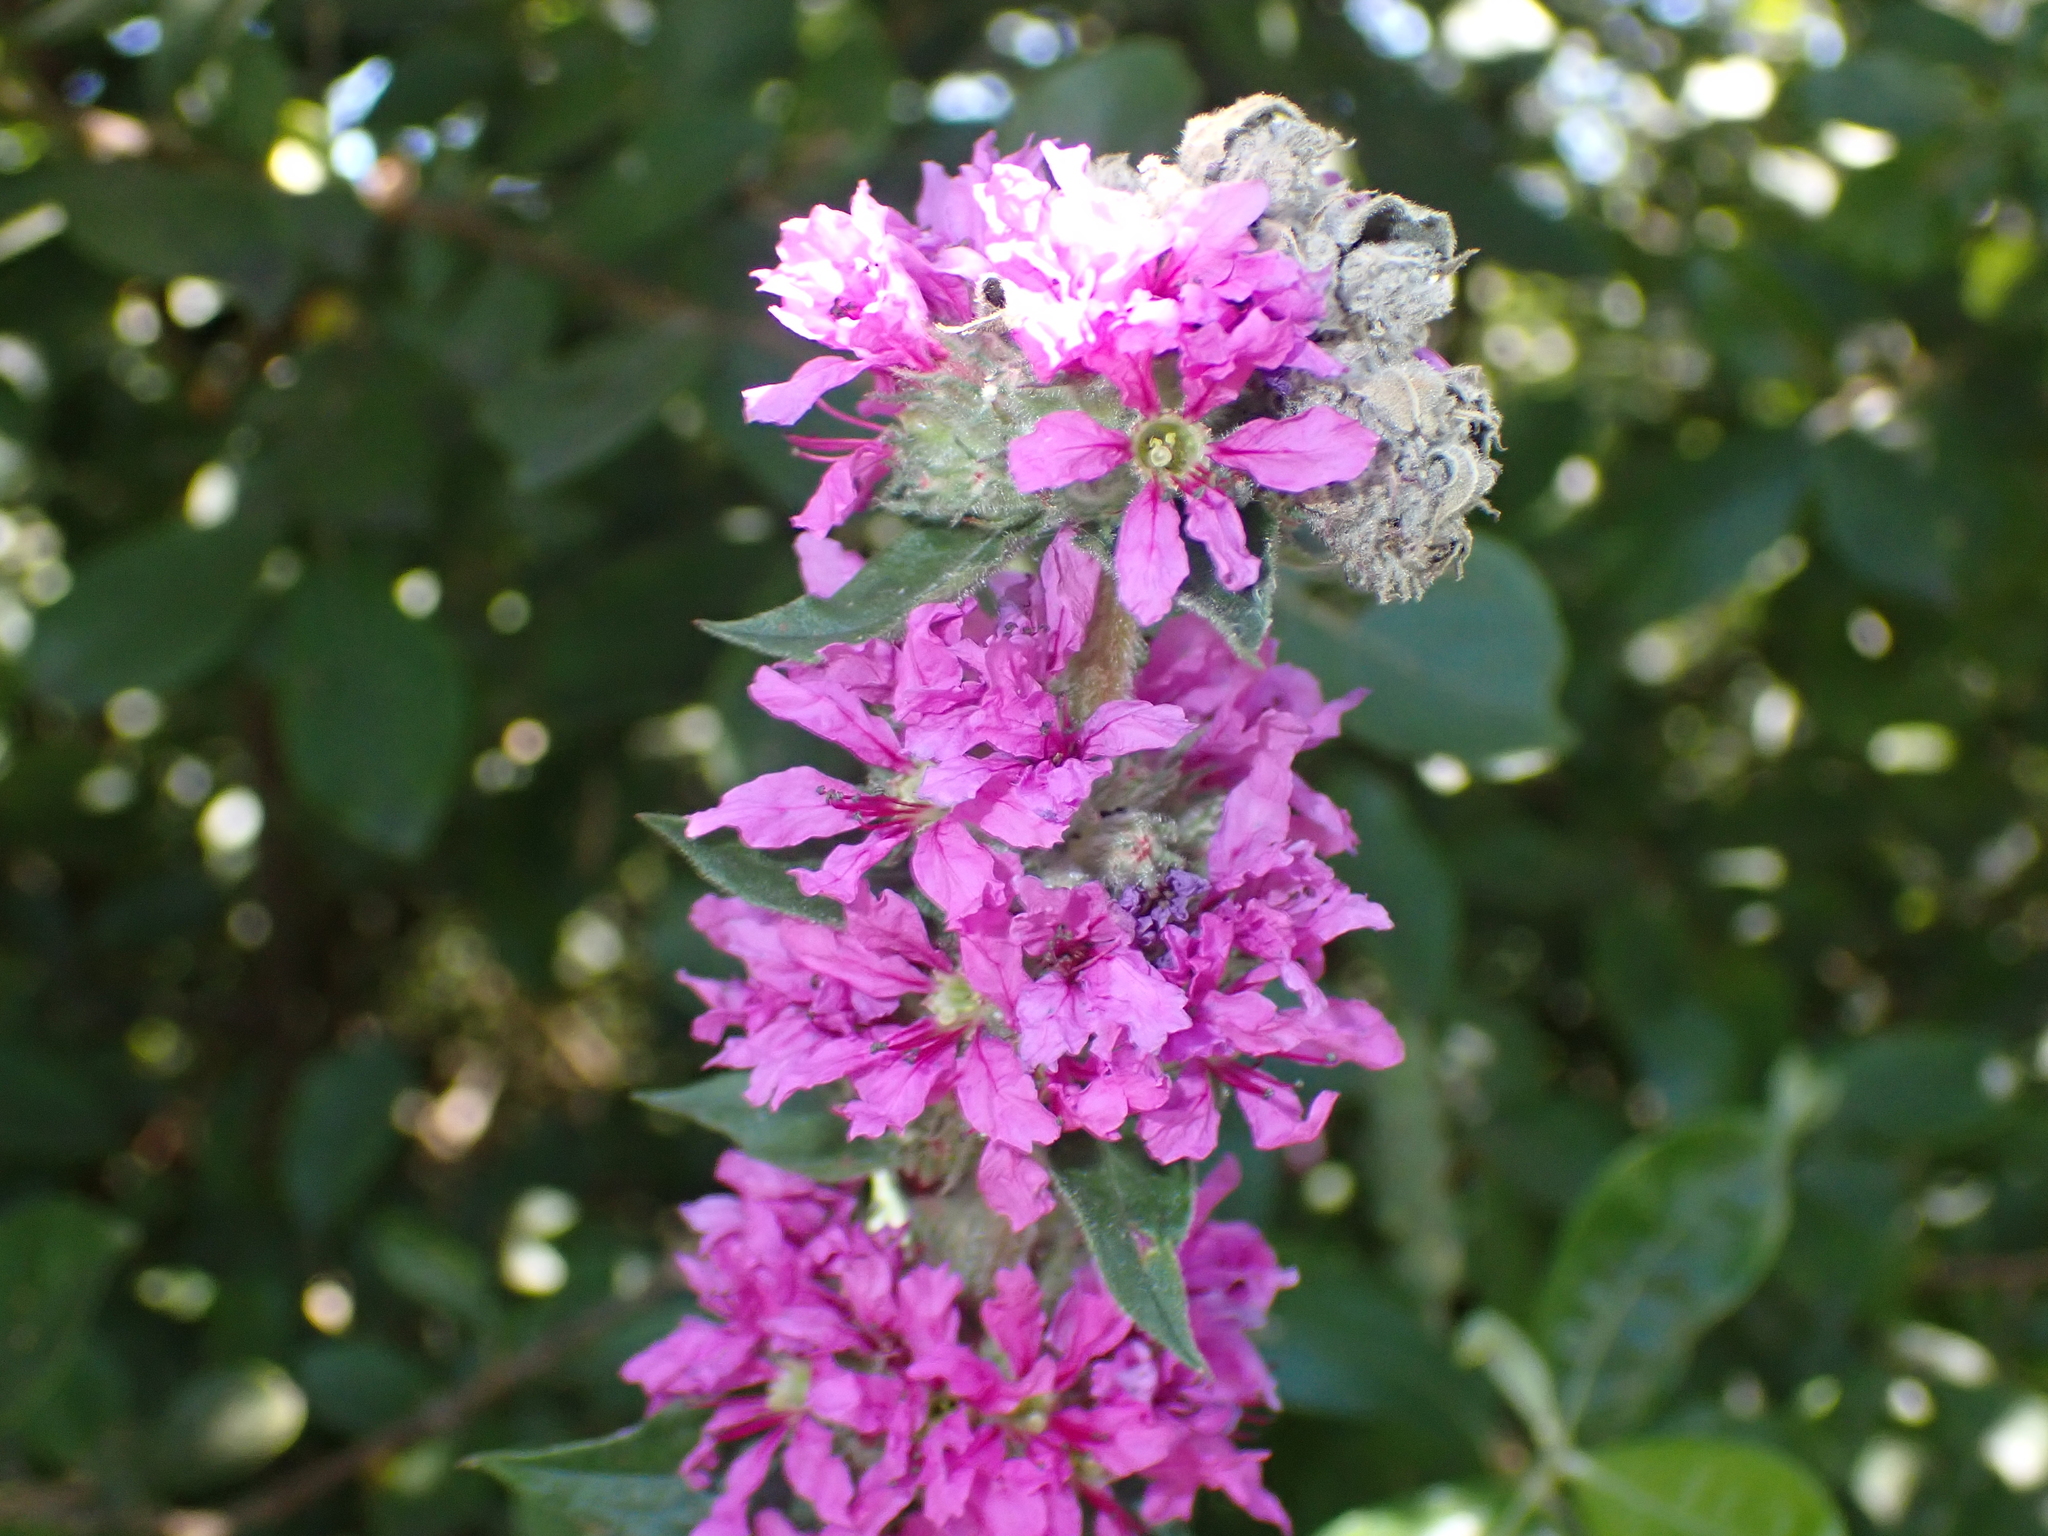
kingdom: Plantae
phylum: Tracheophyta
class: Magnoliopsida
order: Myrtales
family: Lythraceae
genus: Lythrum
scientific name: Lythrum salicaria
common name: Purple loosestrife
